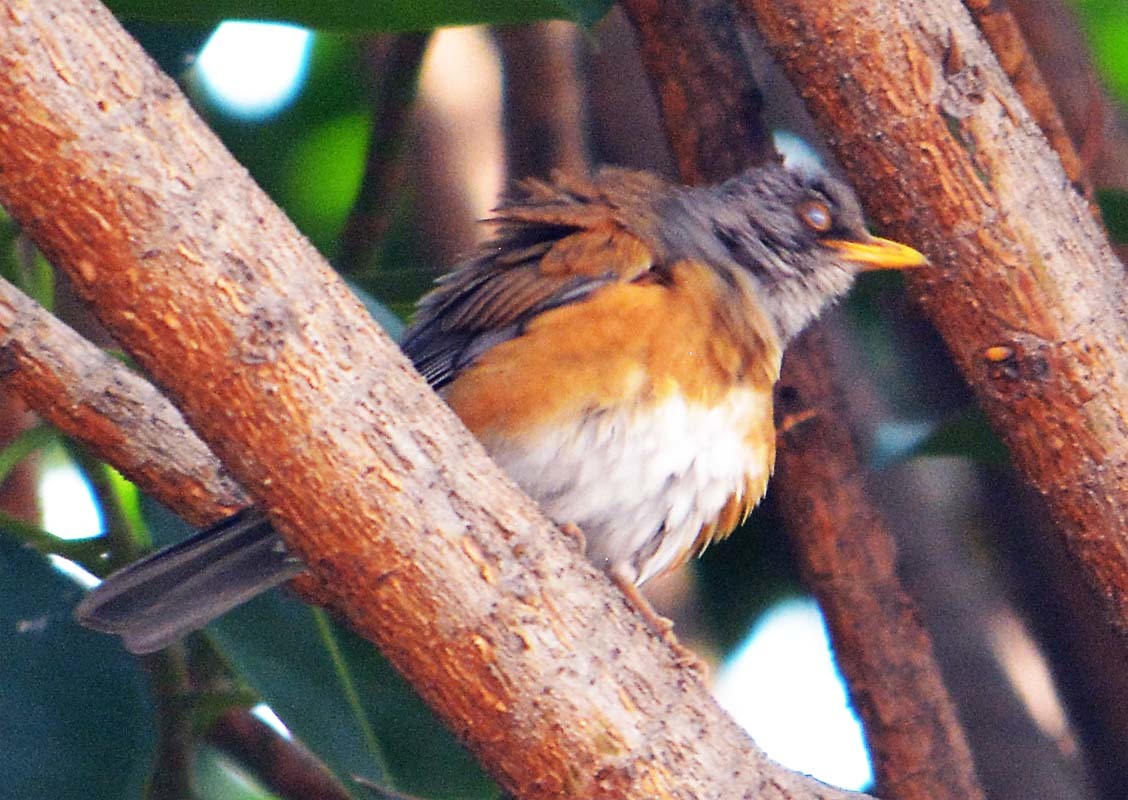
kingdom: Animalia
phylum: Chordata
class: Aves
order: Passeriformes
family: Turdidae
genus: Turdus
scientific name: Turdus rufopalliatus
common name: Rufous-backed robin
